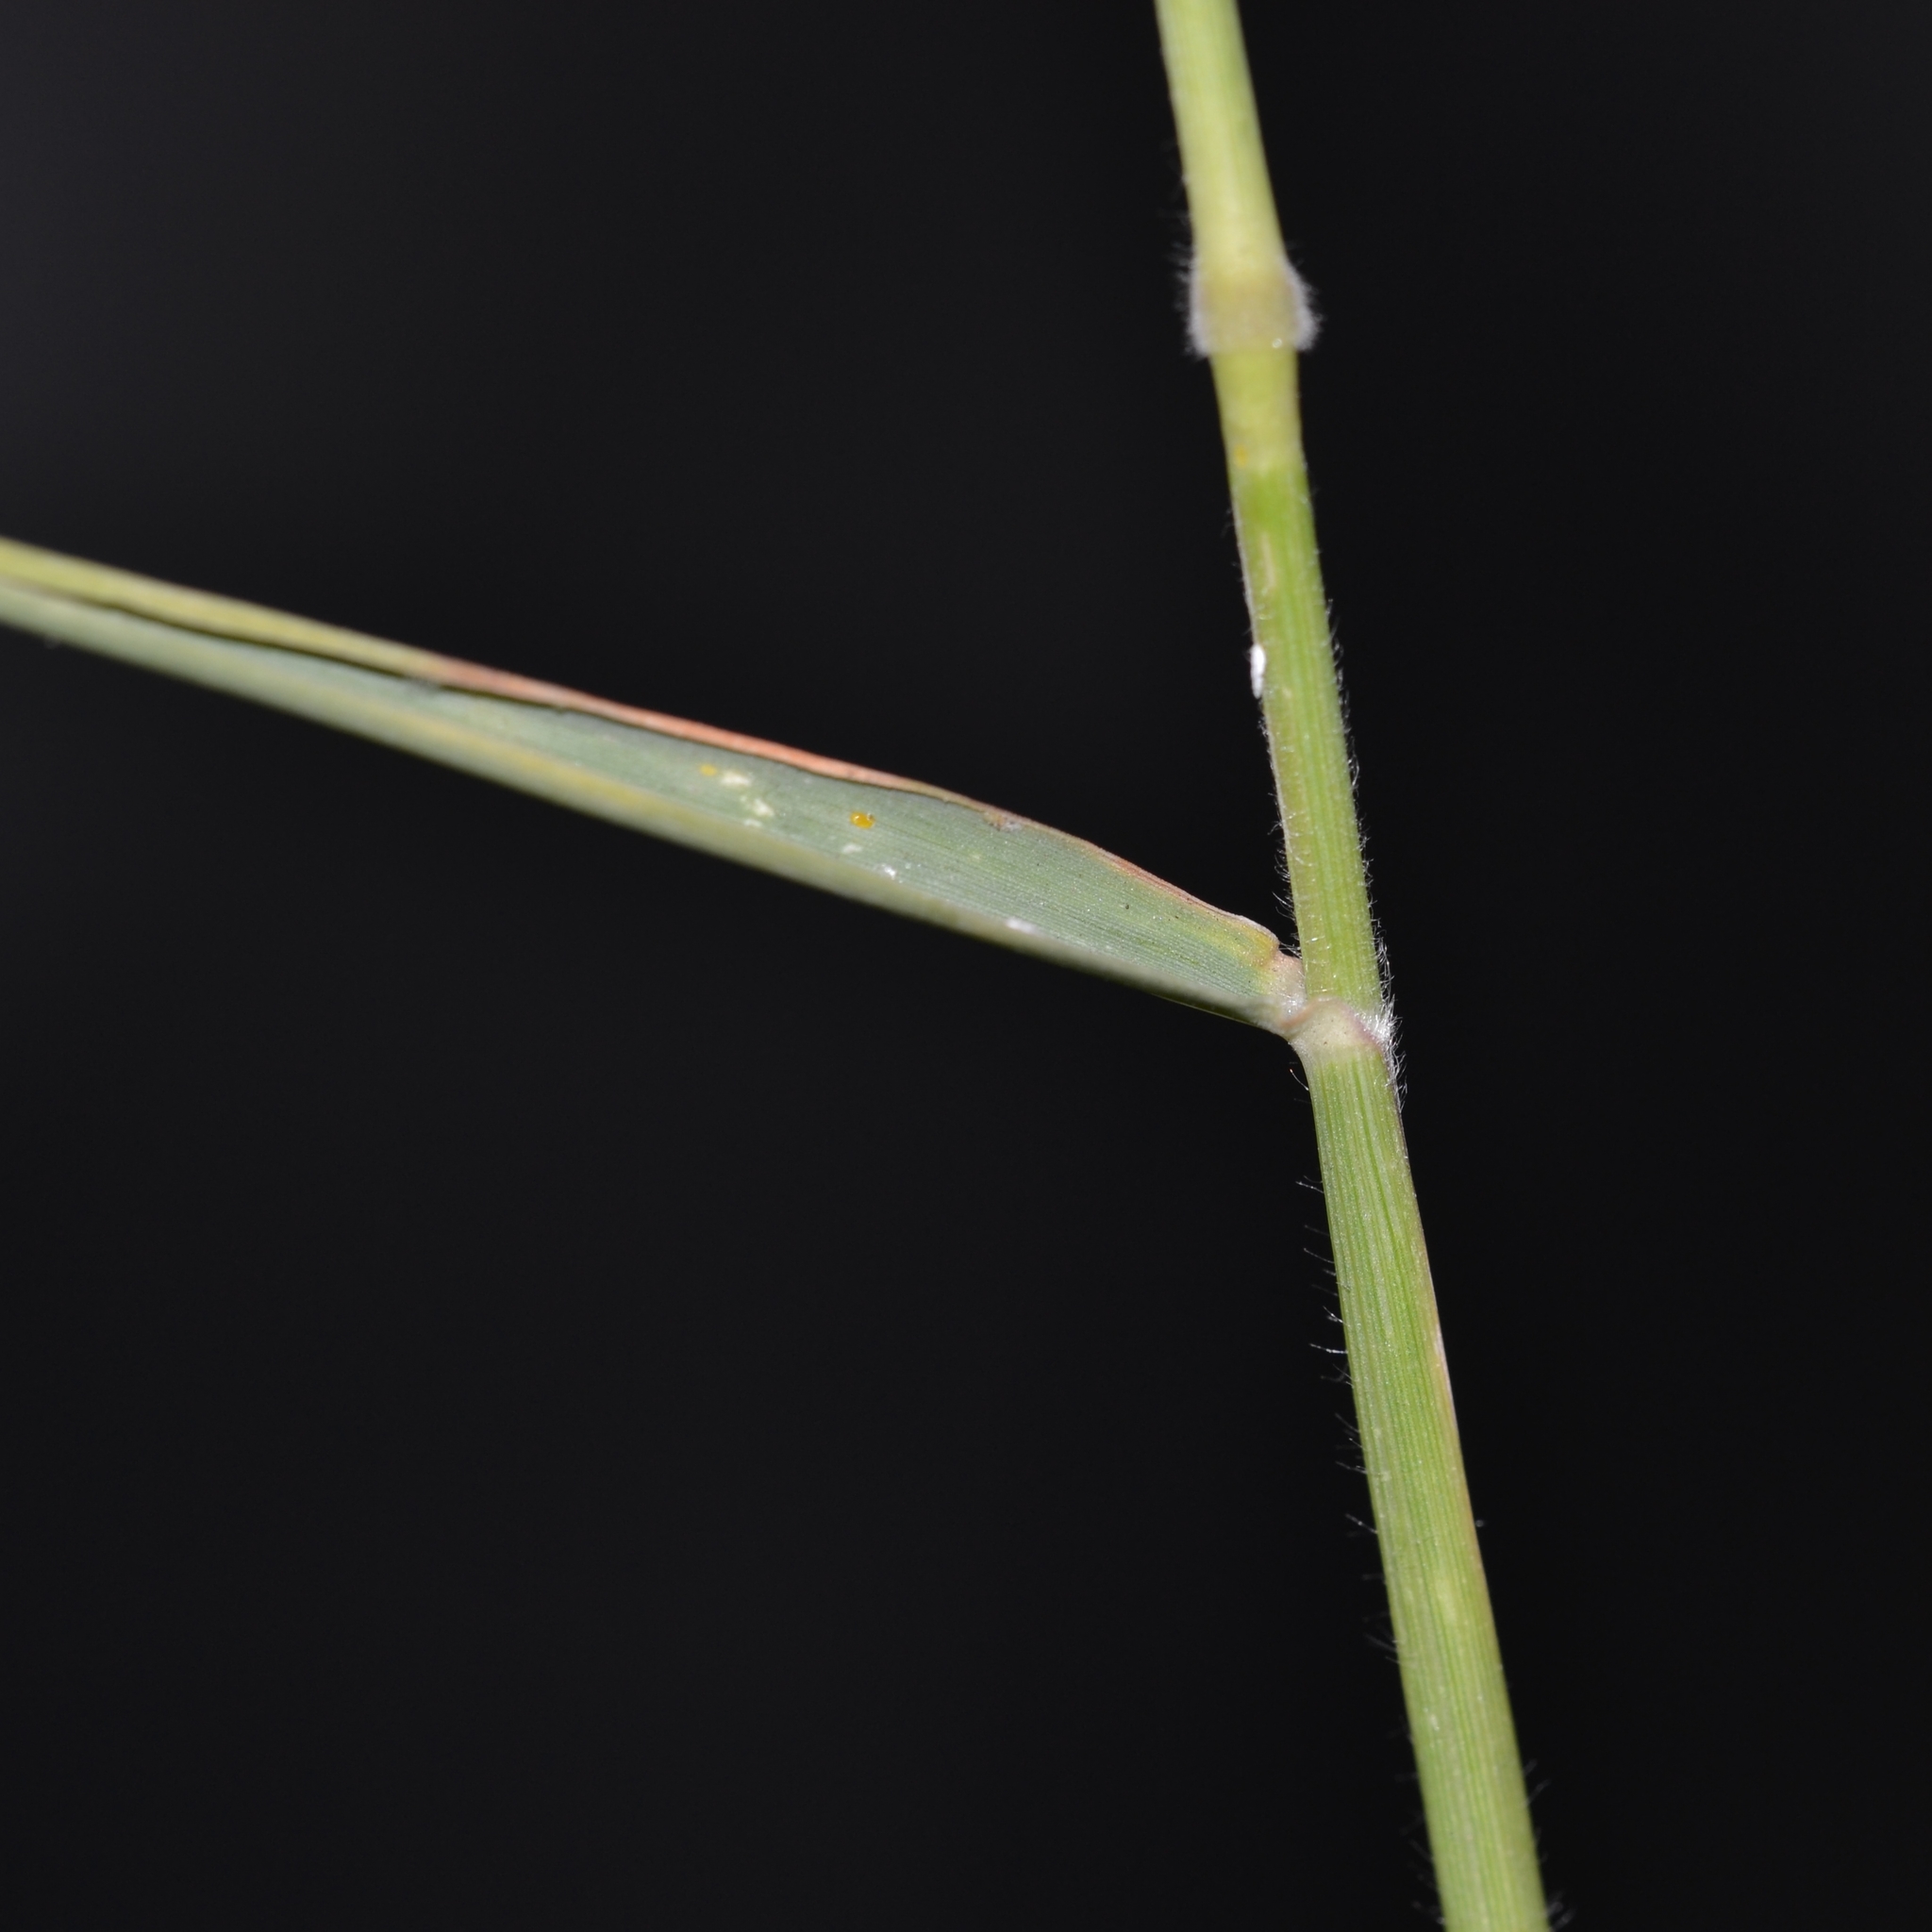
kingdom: Plantae
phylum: Tracheophyta
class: Liliopsida
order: Poales
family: Poaceae
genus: Melinis
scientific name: Melinis repens
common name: Rose natal grass
